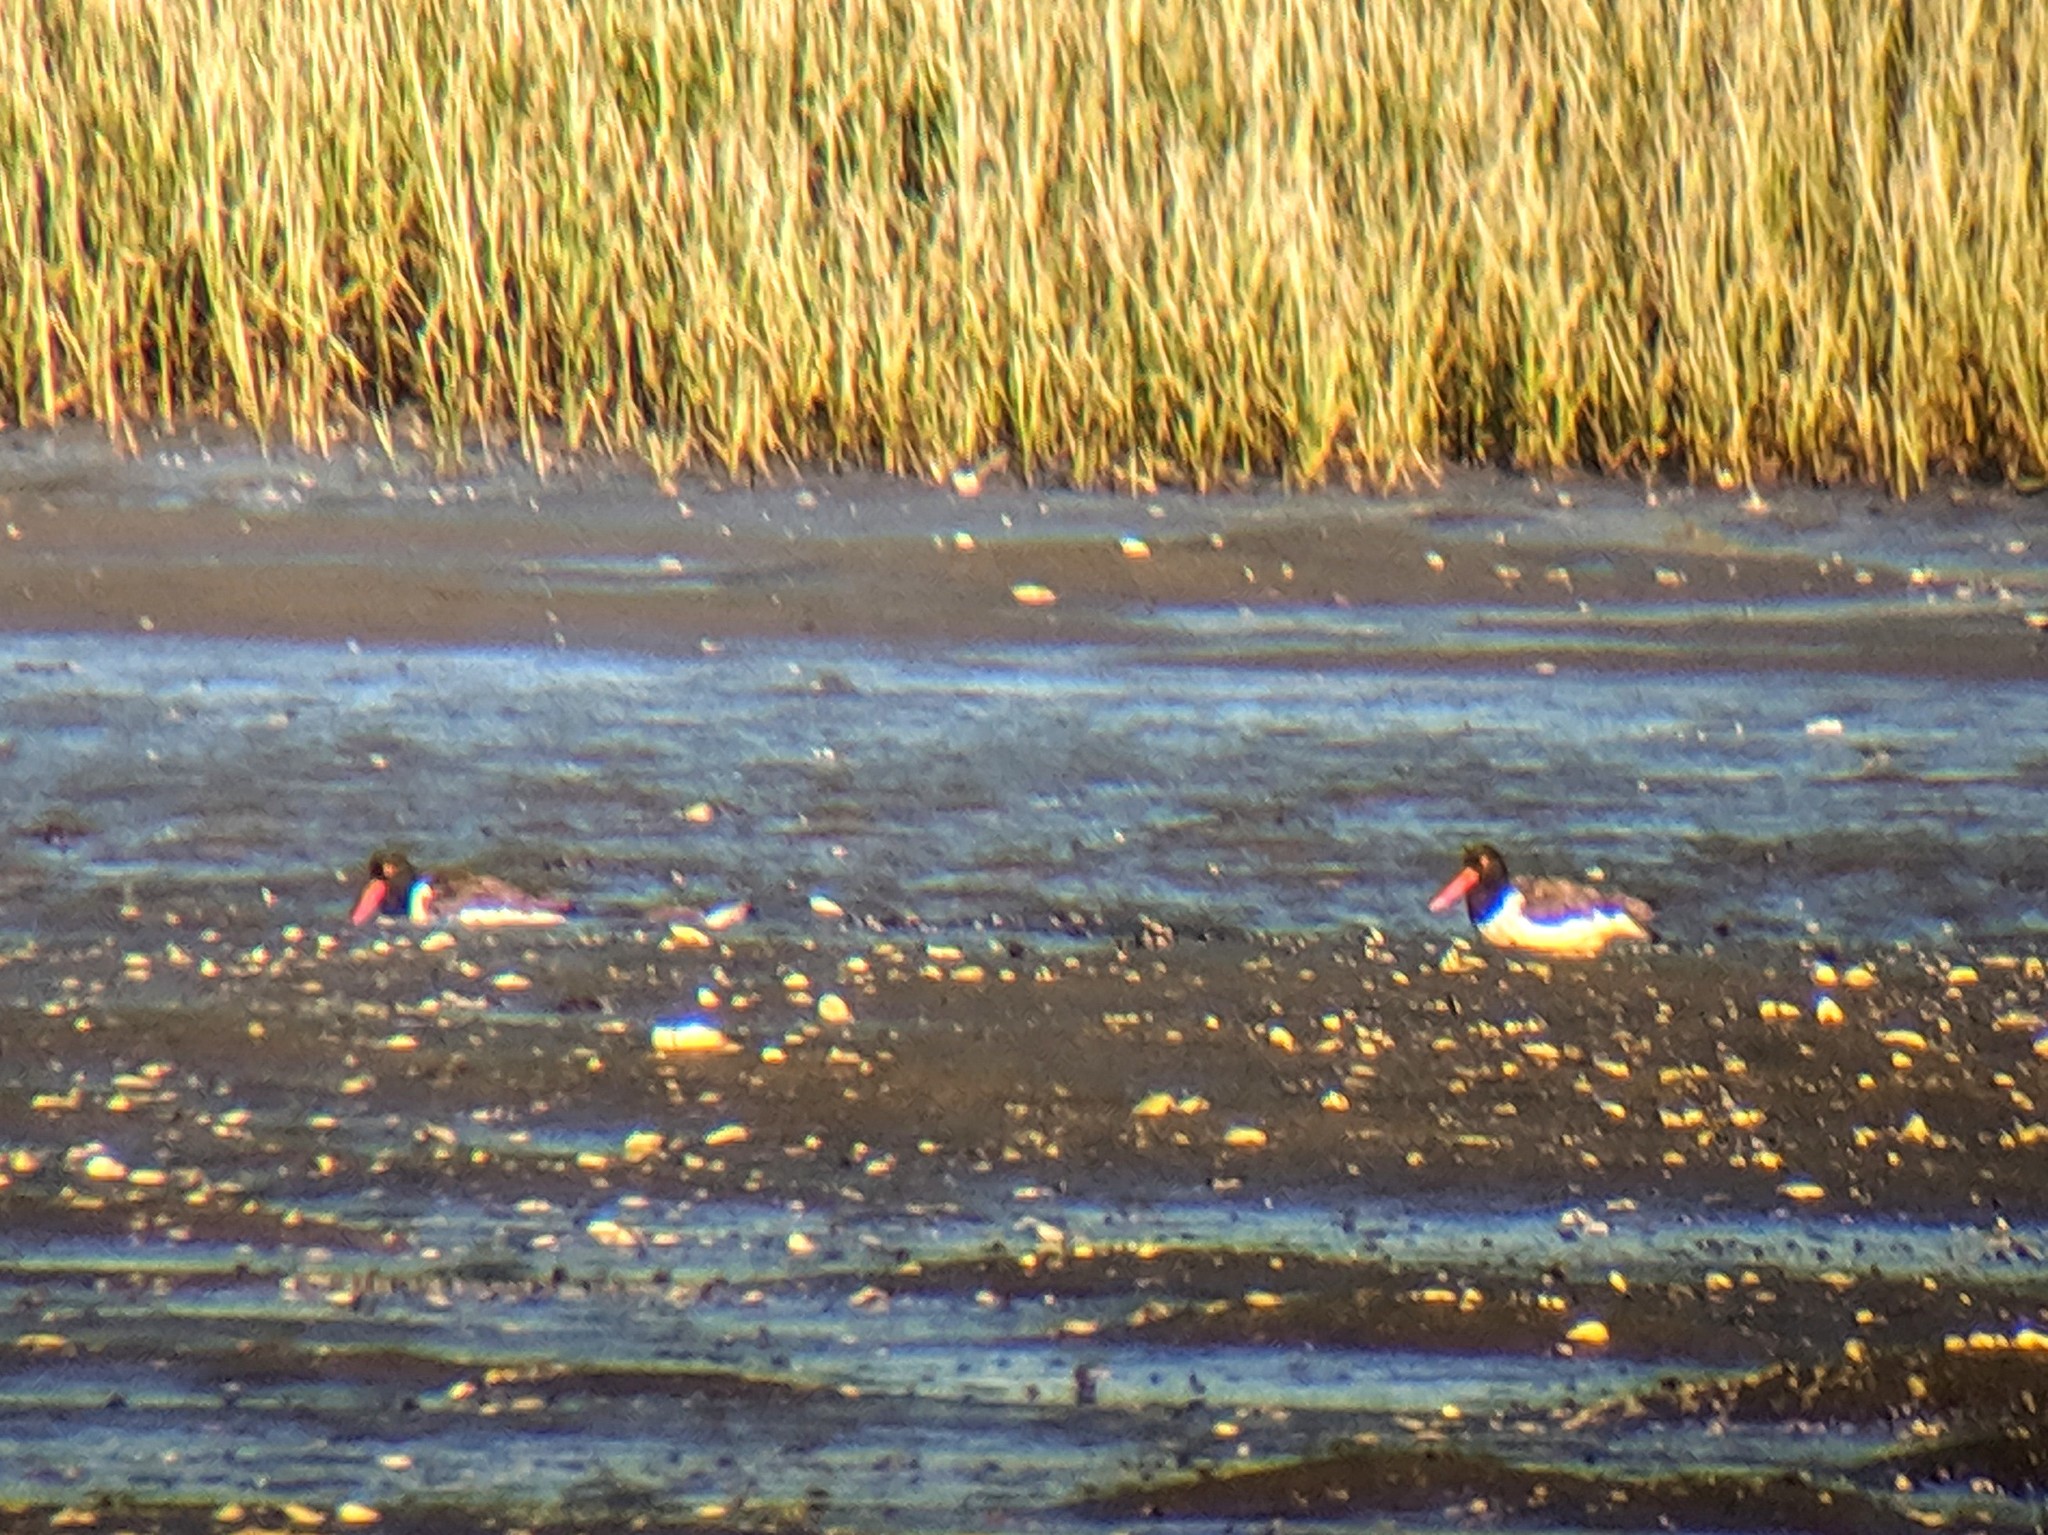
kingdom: Animalia
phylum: Chordata
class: Aves
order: Charadriiformes
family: Haematopodidae
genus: Haematopus
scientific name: Haematopus palliatus
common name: American oystercatcher
